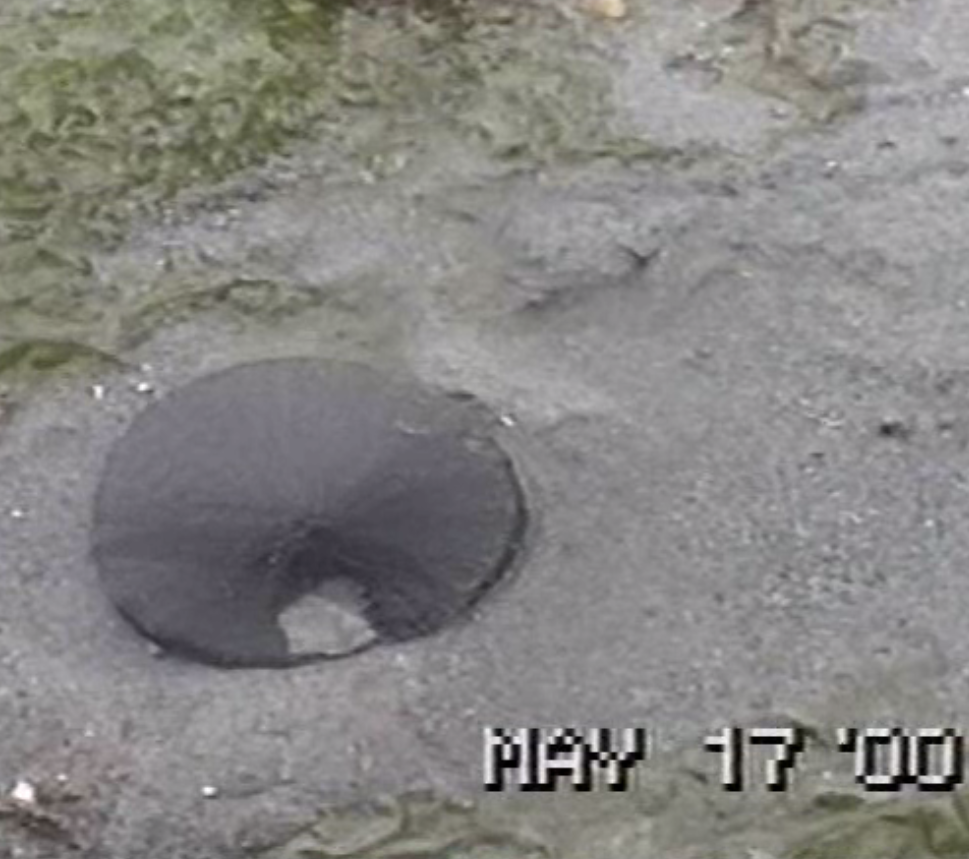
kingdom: Animalia
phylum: Echinodermata
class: Echinoidea
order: Echinolampadacea
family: Dendrasteridae
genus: Dendraster
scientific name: Dendraster excentricus
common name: Eccentric sand dollar sea urchin
